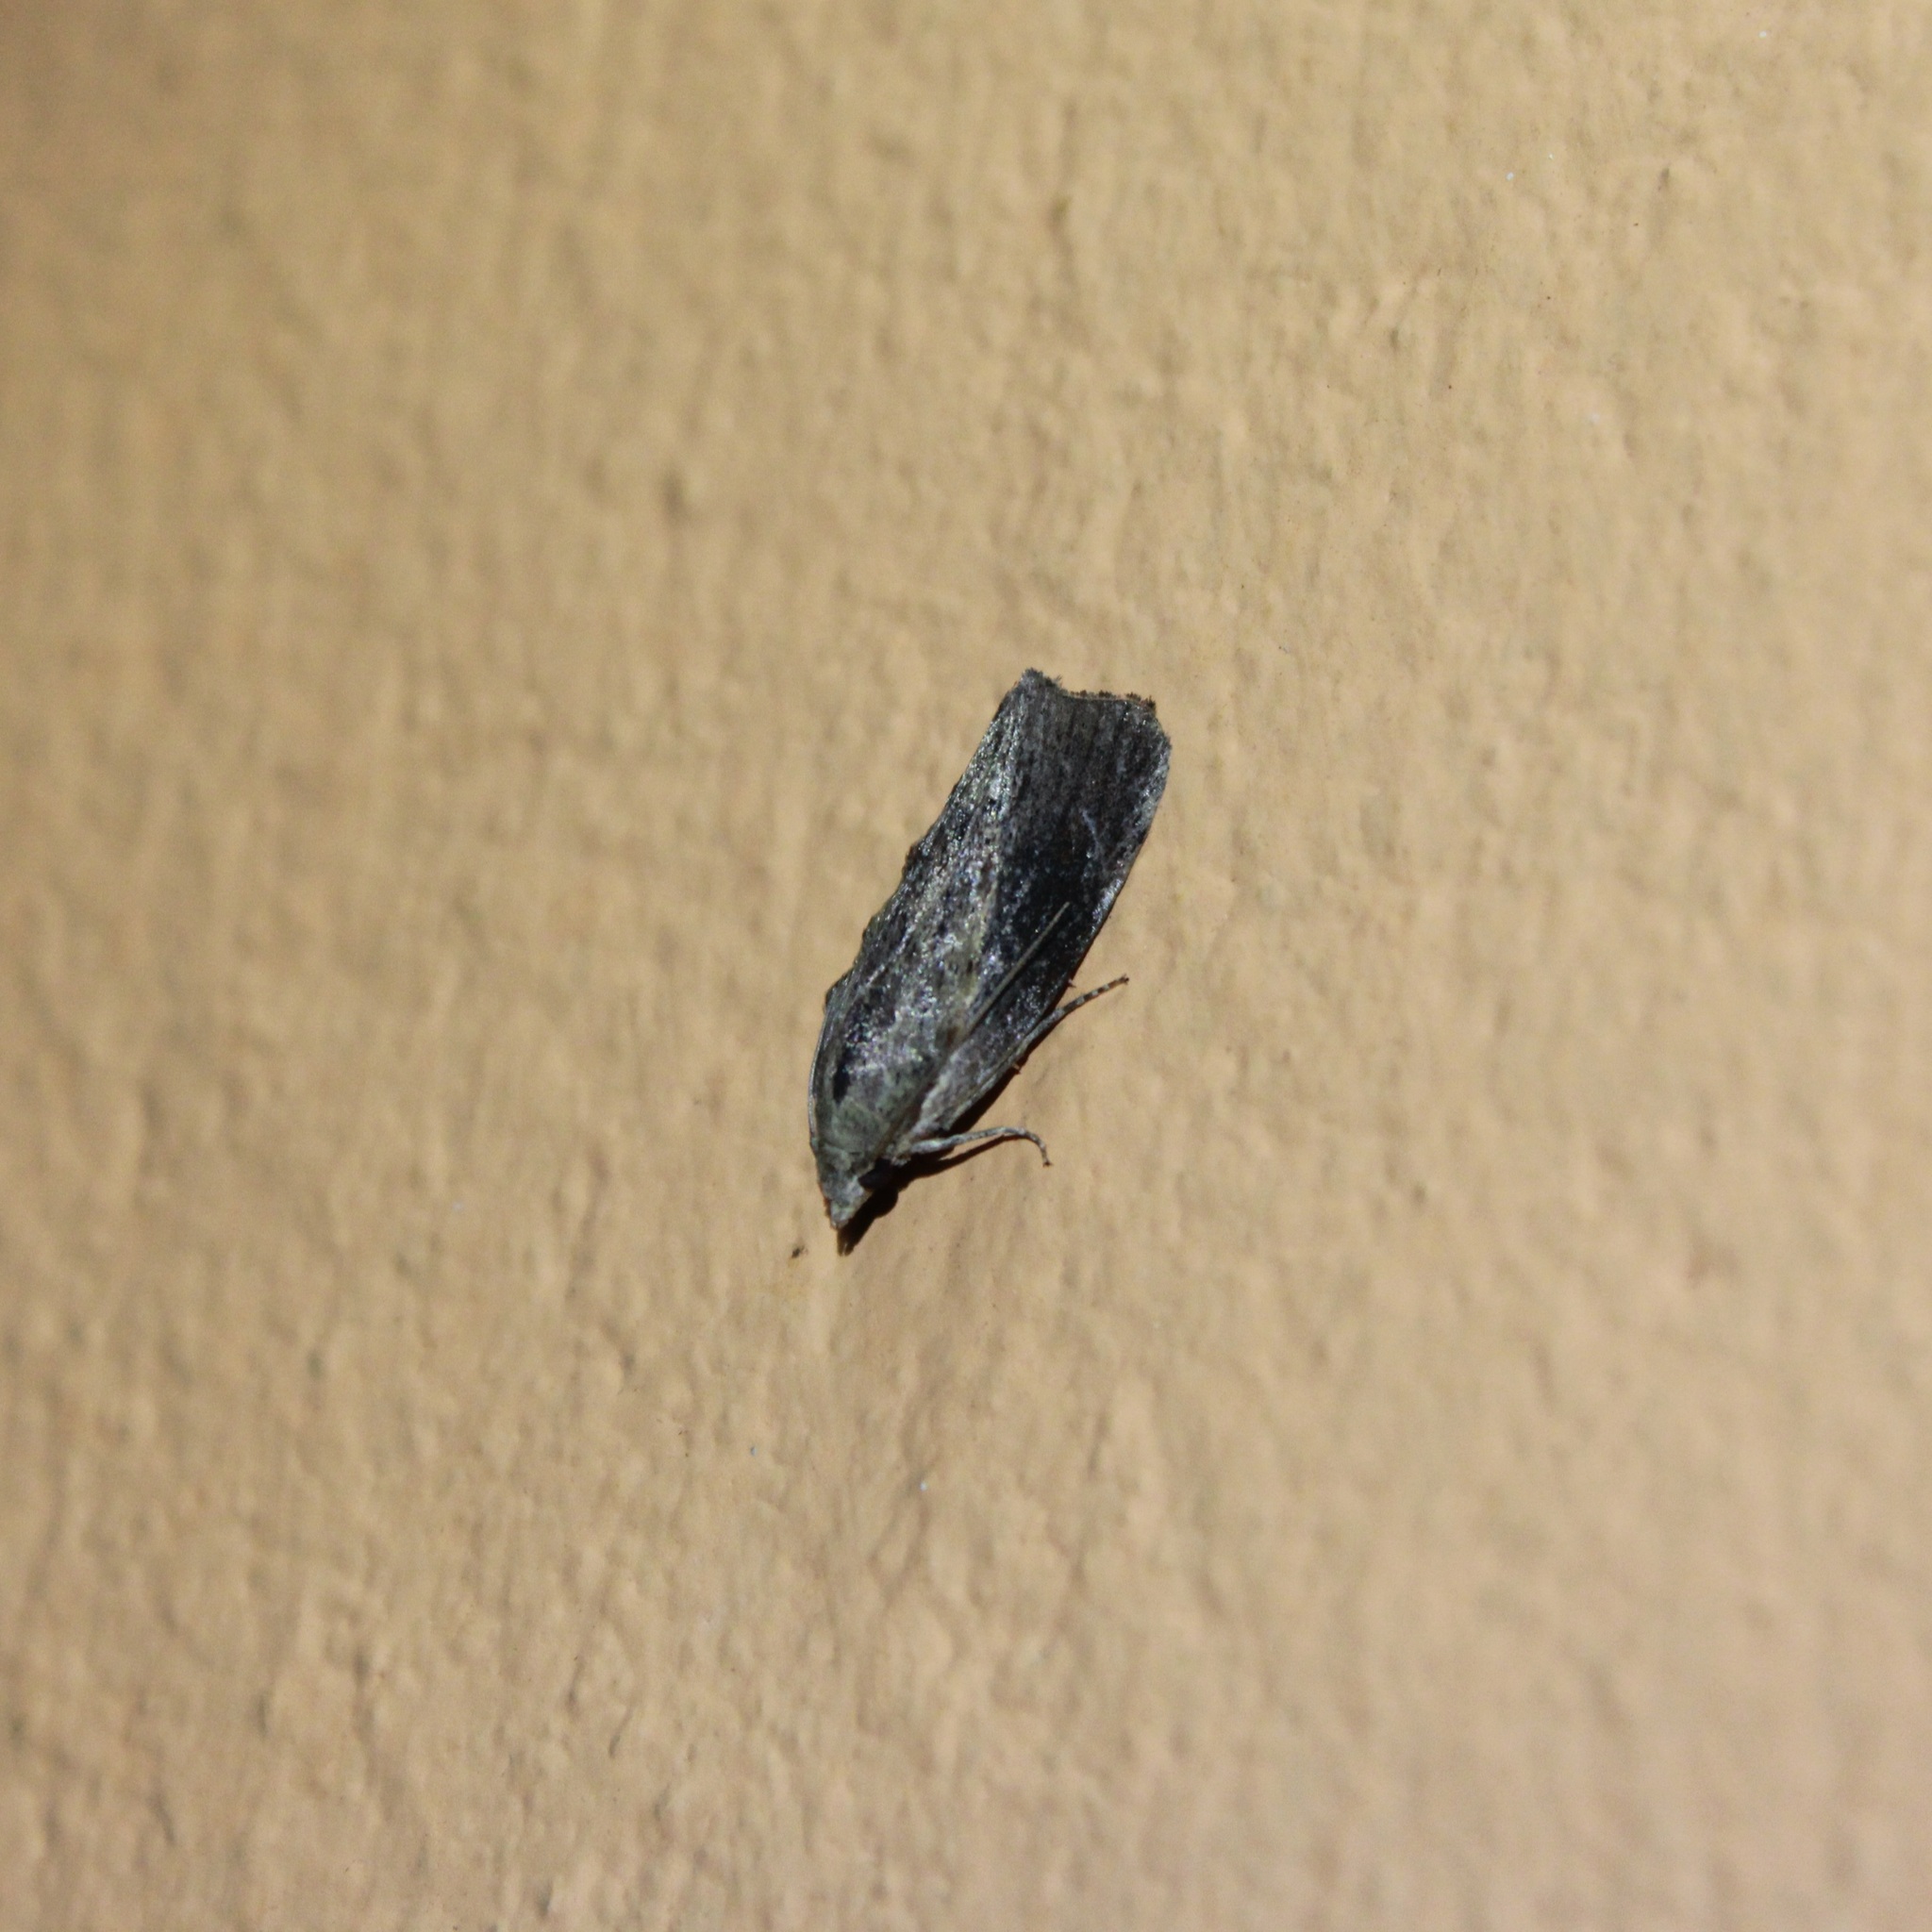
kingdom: Animalia
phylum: Arthropoda
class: Insecta
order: Lepidoptera
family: Pyralidae
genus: Galleria
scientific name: Galleria mellonella
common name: Greater wax moth
